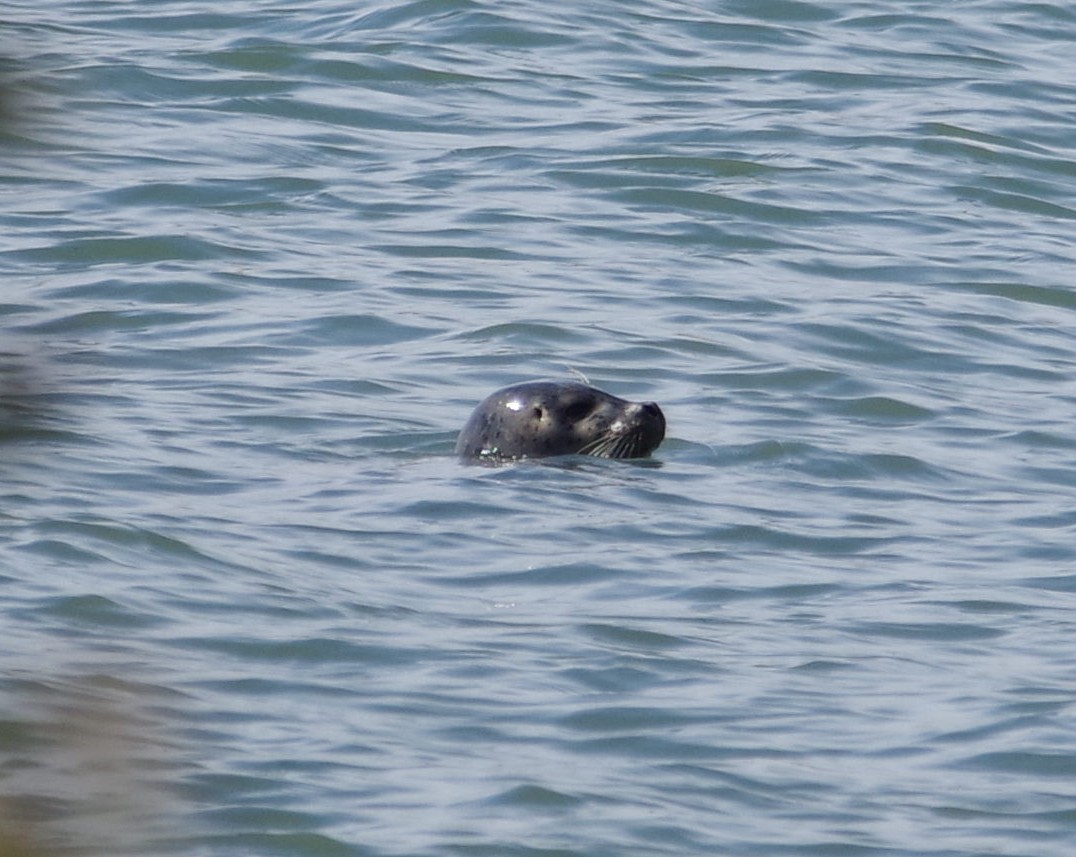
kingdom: Animalia
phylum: Chordata
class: Mammalia
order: Carnivora
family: Phocidae
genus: Phoca
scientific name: Phoca vitulina
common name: Harbor seal
